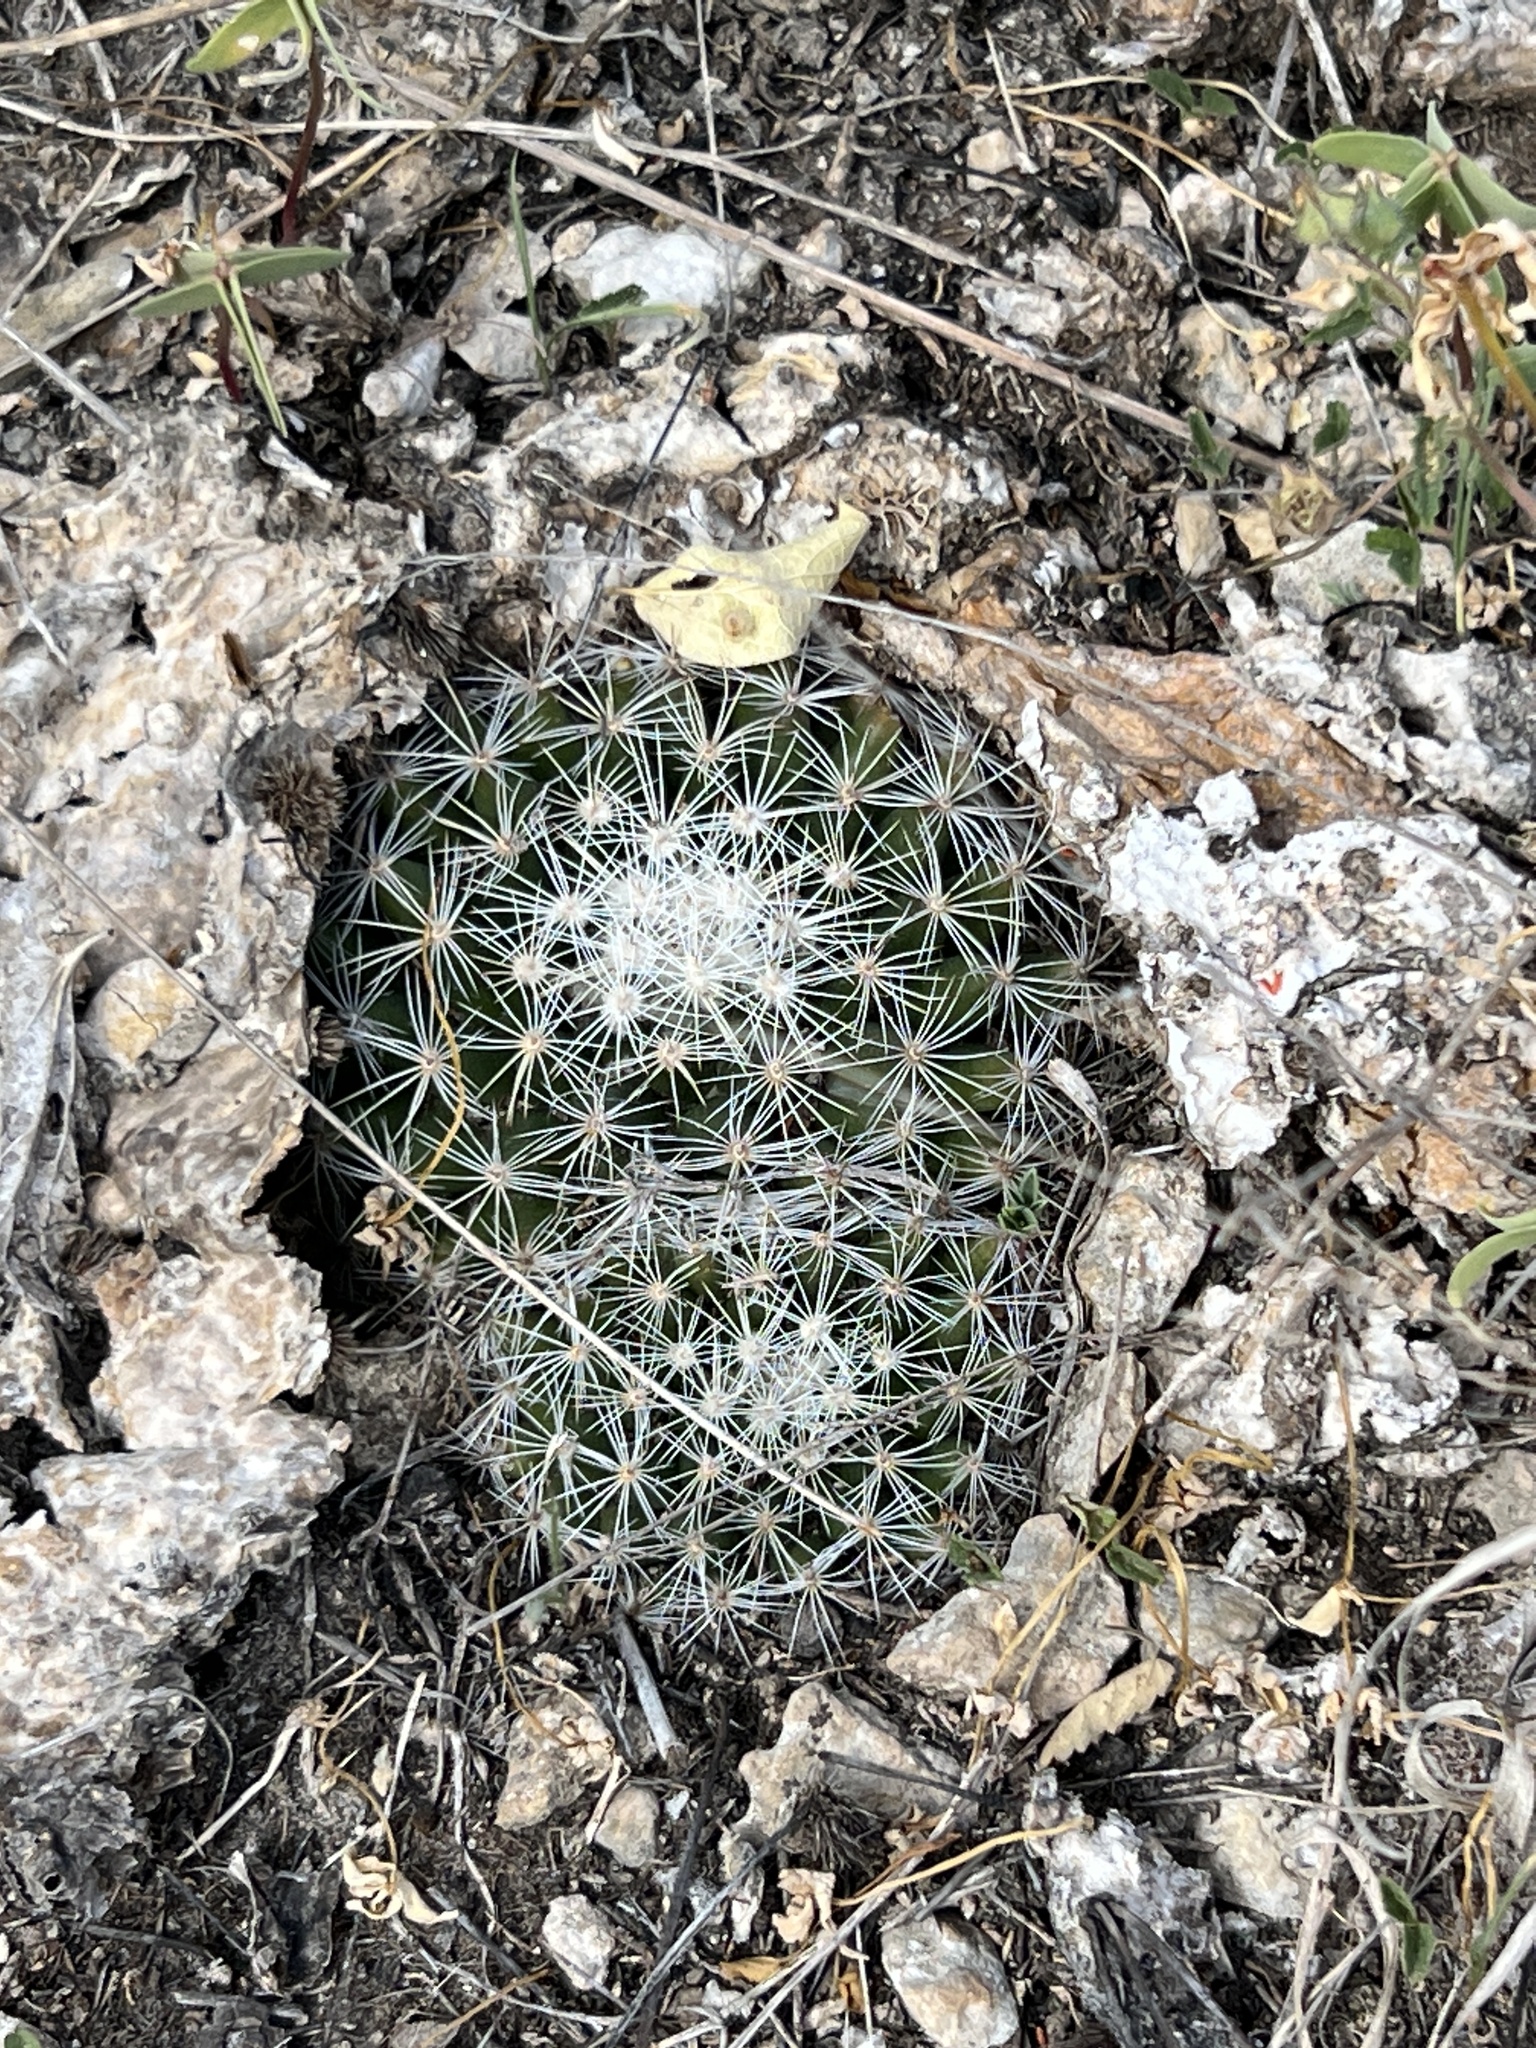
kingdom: Plantae
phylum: Tracheophyta
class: Magnoliopsida
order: Caryophyllales
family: Cactaceae
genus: Mammillaria
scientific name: Mammillaria heyderi
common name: Little nipple cactus
